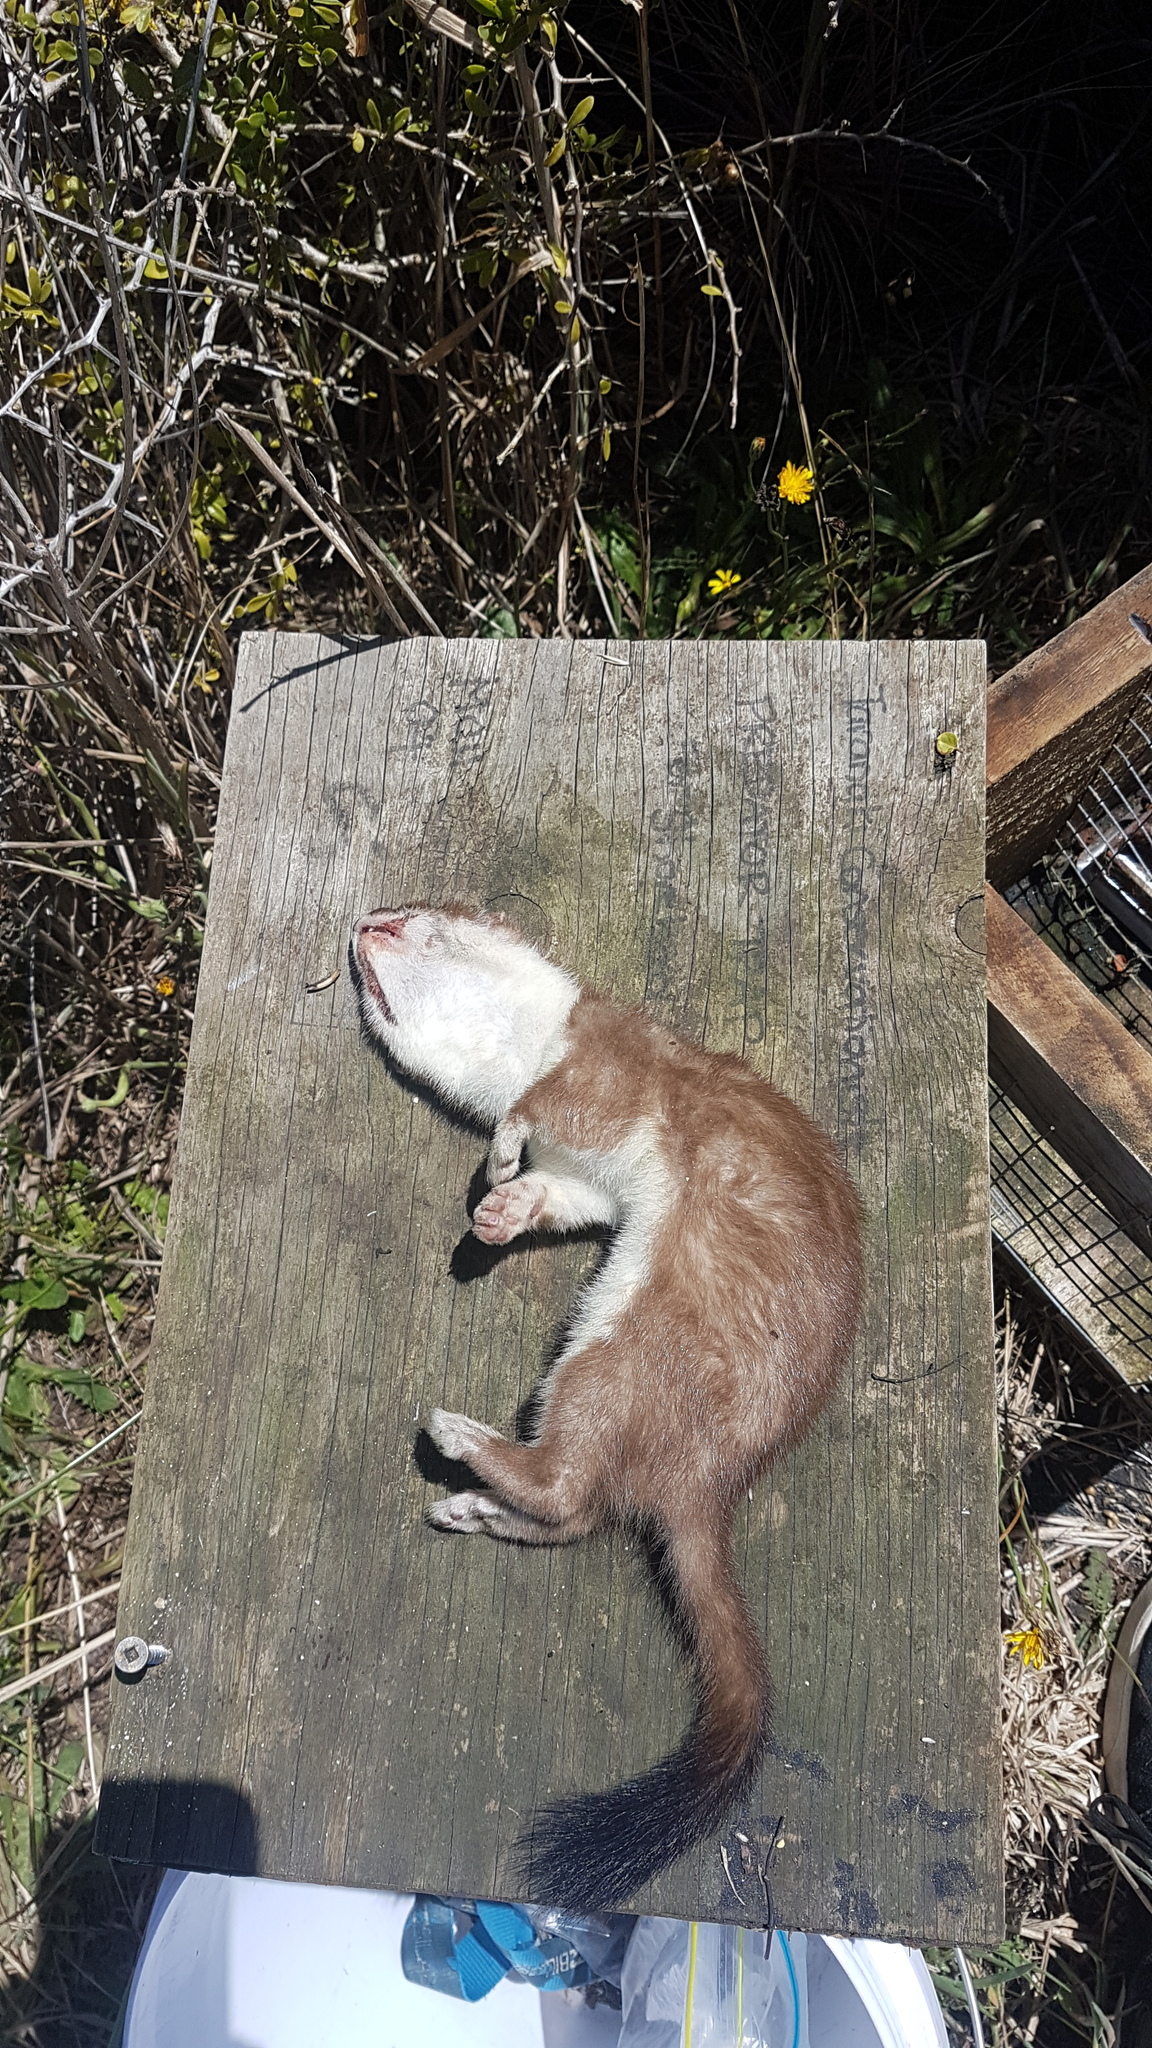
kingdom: Animalia
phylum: Chordata
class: Mammalia
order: Carnivora
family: Mustelidae
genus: Mustela
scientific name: Mustela erminea
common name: Stoat
